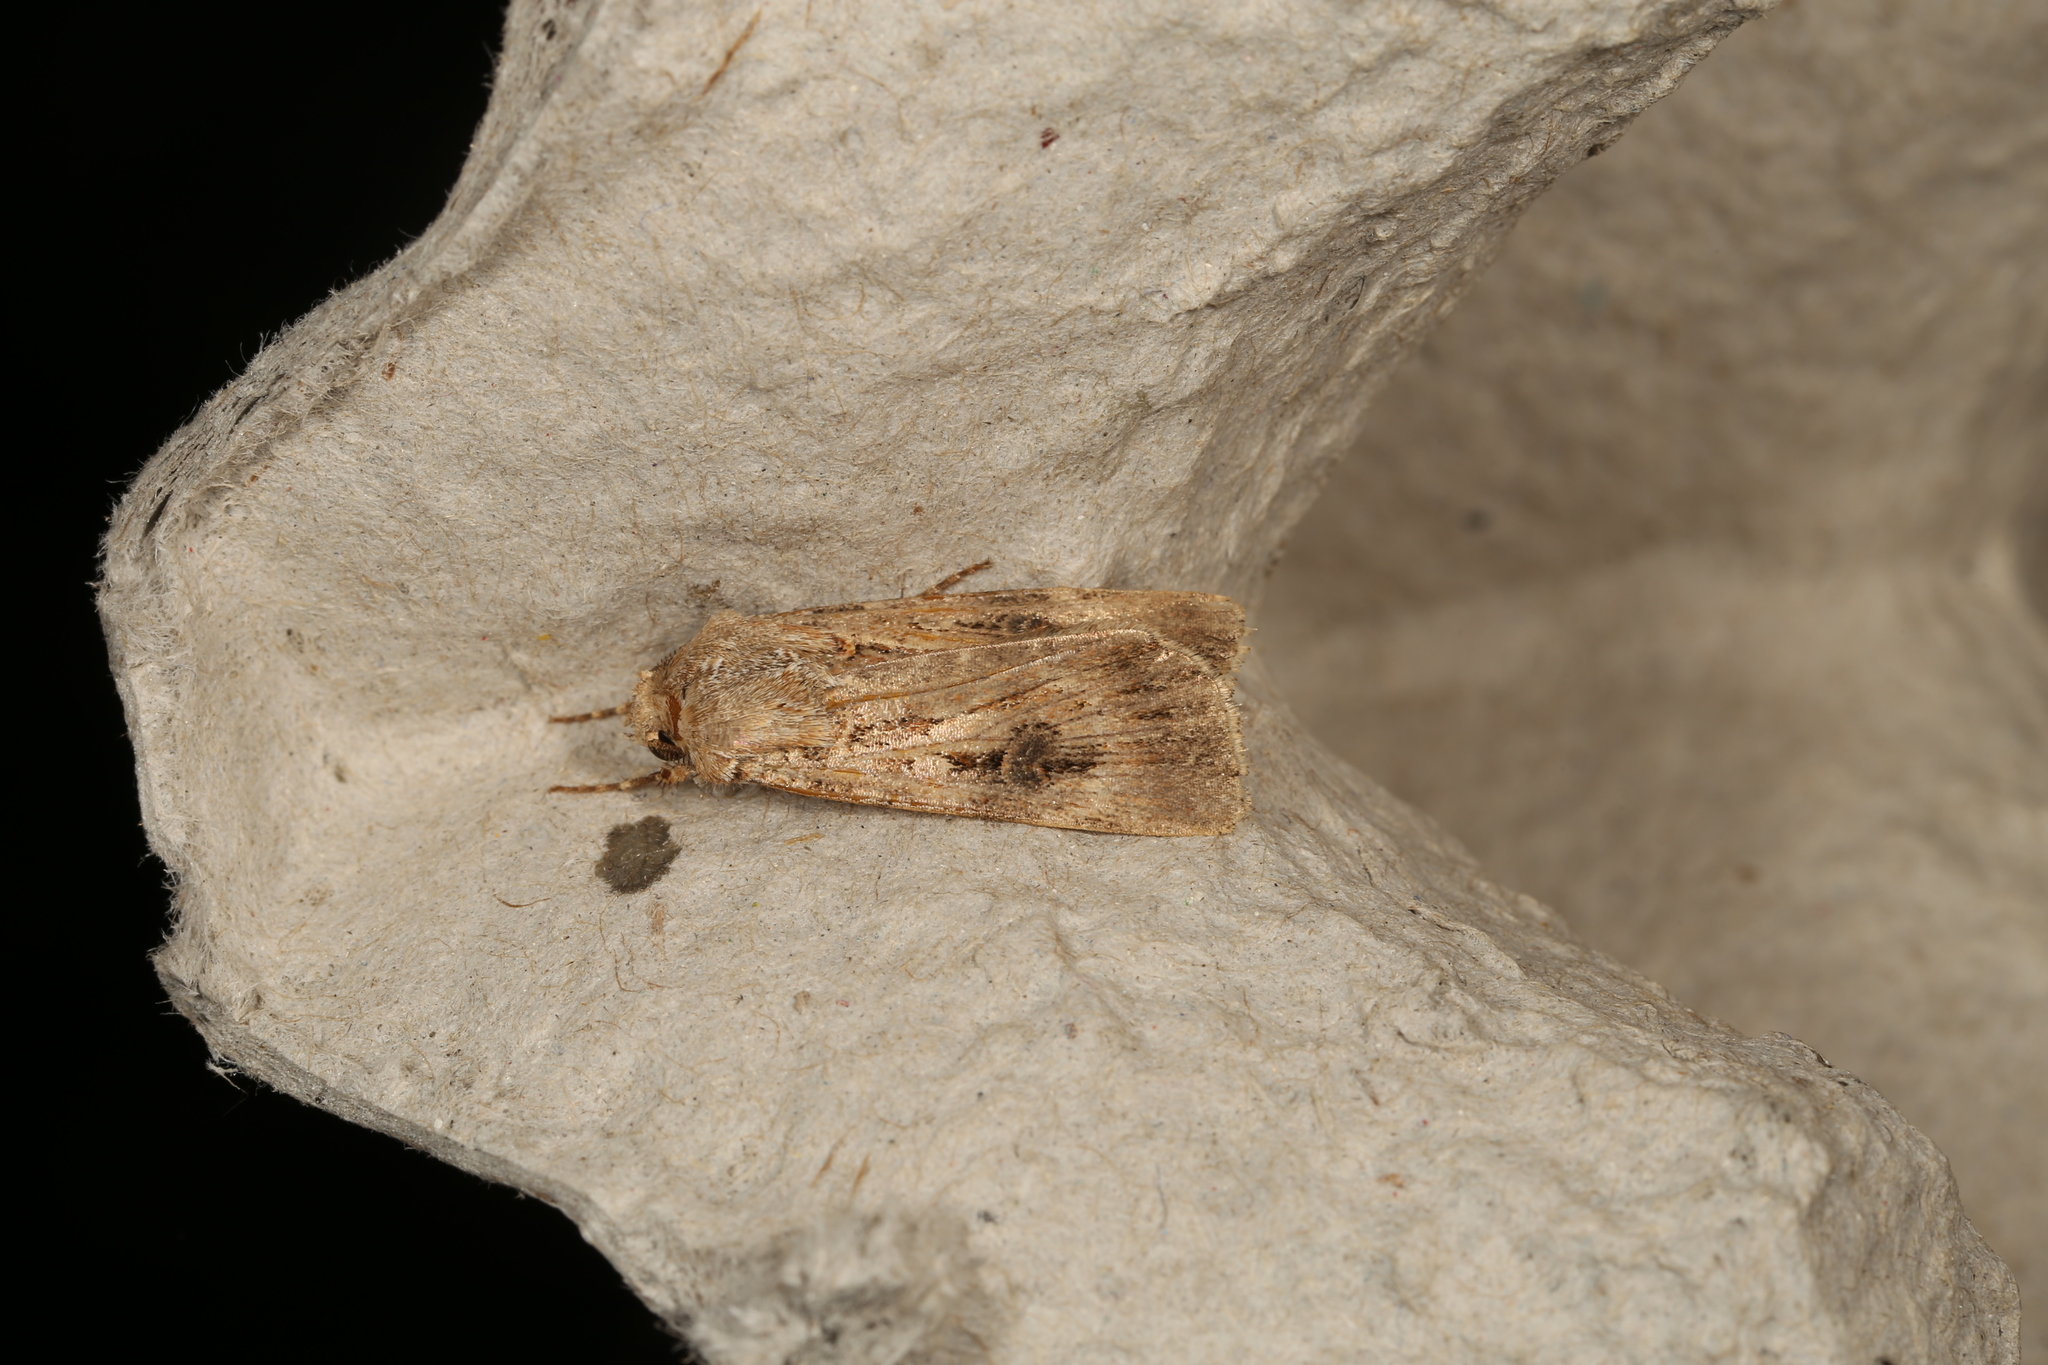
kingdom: Animalia
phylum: Arthropoda
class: Insecta
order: Lepidoptera
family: Noctuidae
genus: Agrotis
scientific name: Agrotis infusa
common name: Bogong moth
